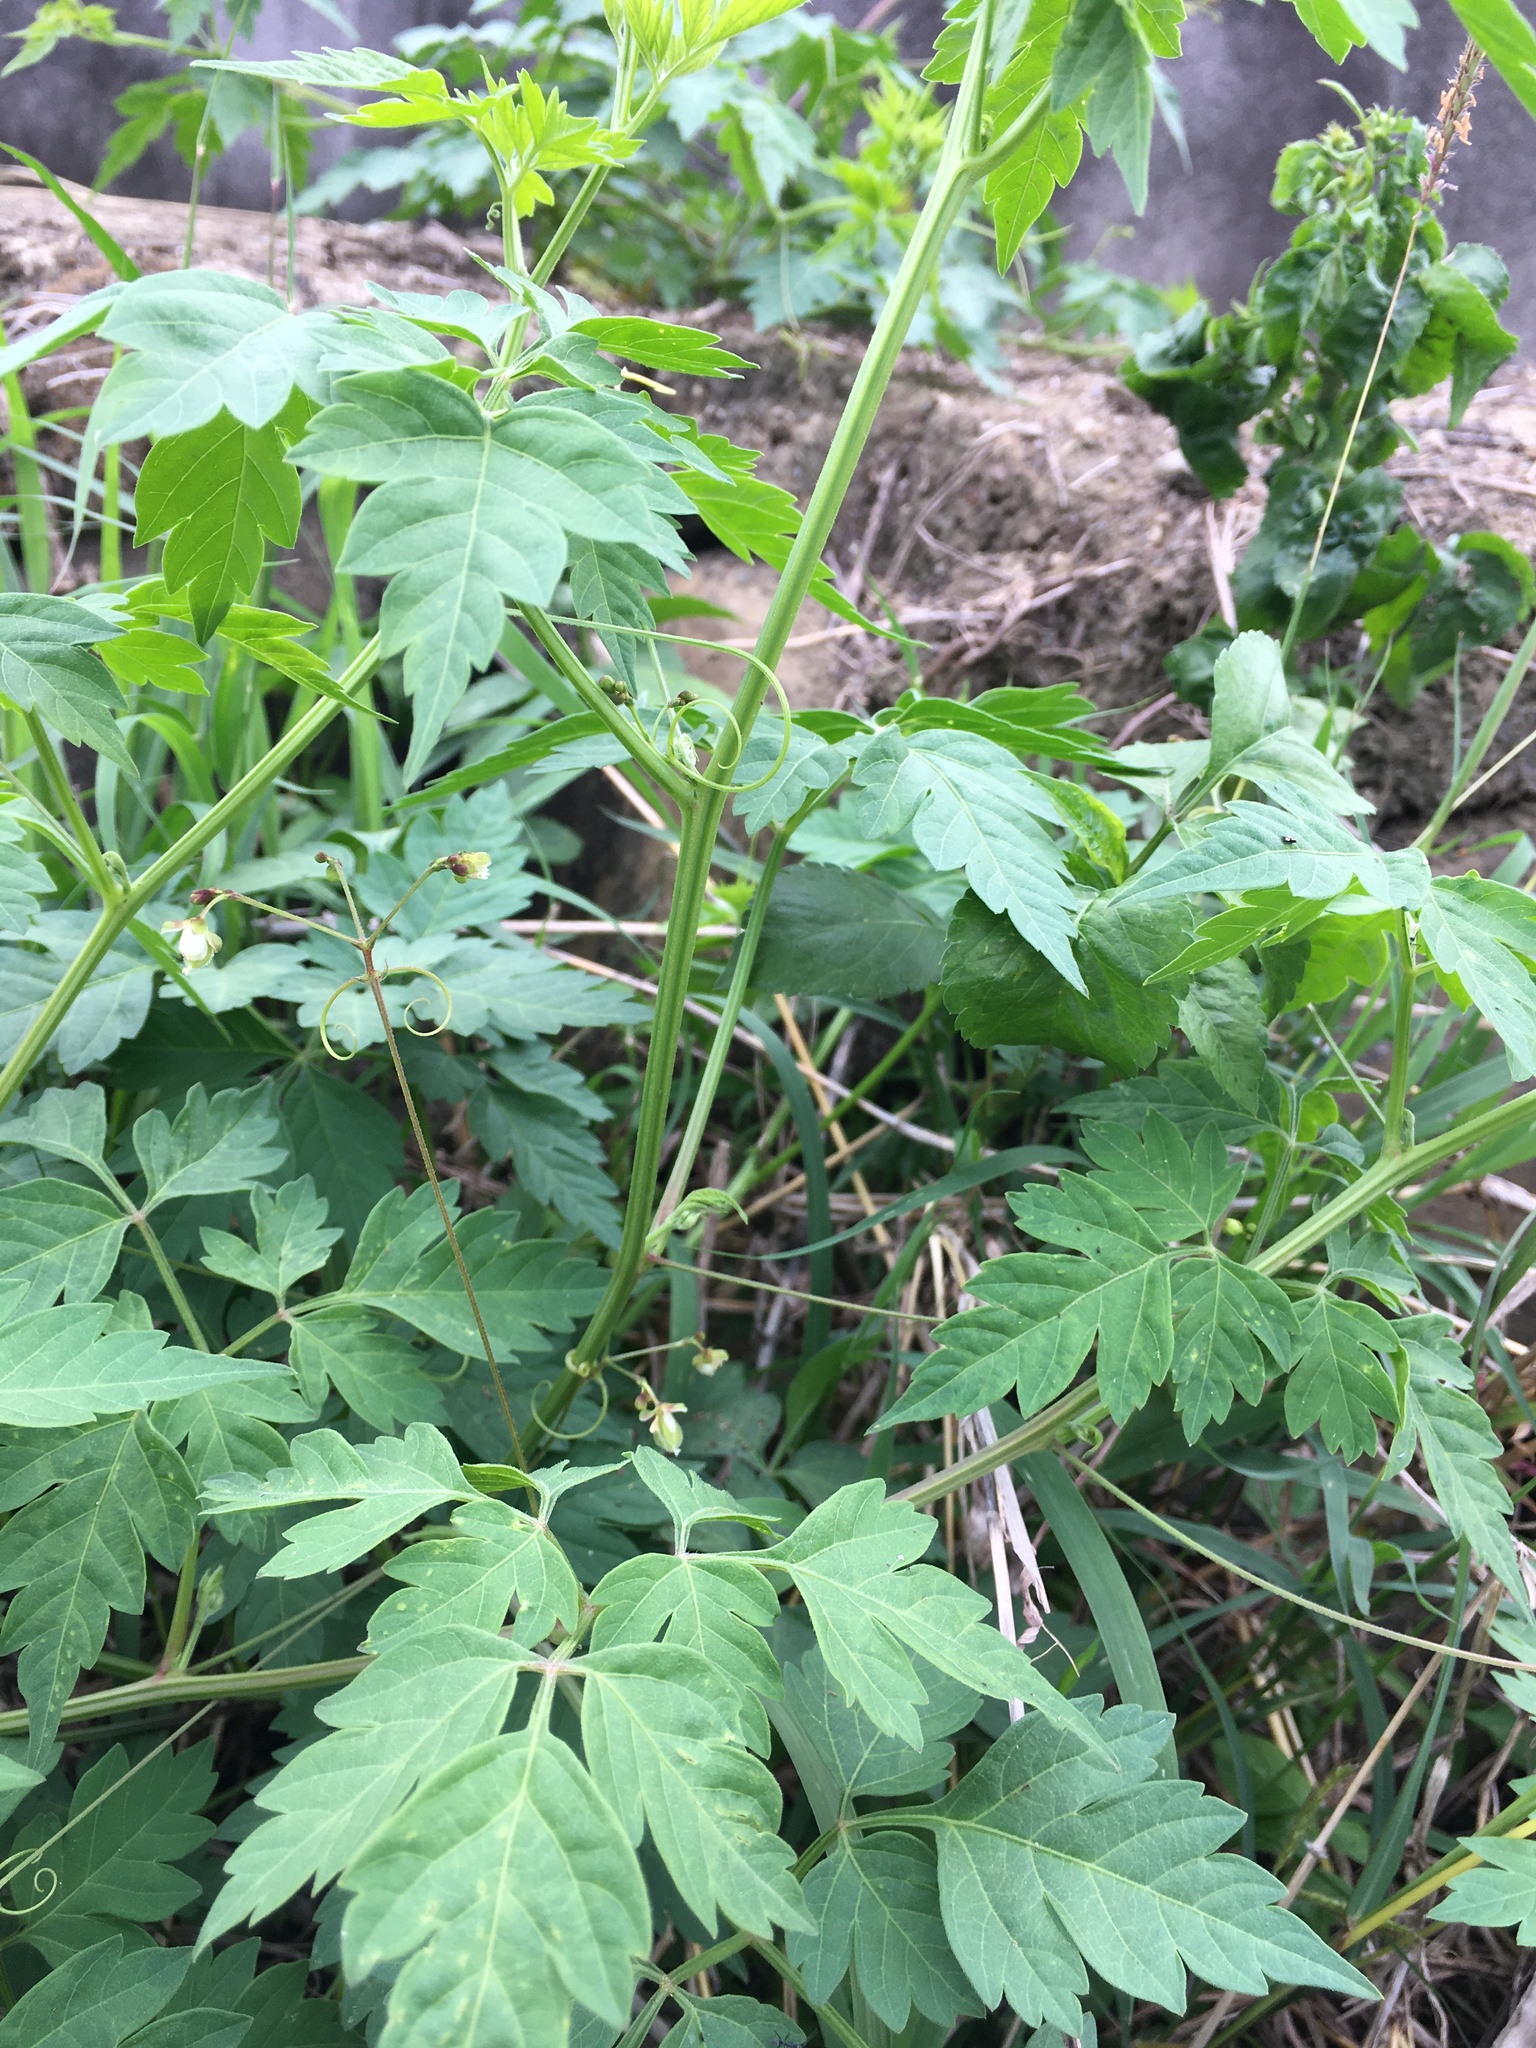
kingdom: Plantae
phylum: Tracheophyta
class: Magnoliopsida
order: Sapindales
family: Sapindaceae
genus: Cardiospermum
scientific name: Cardiospermum halicacabum
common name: Balloon vine
